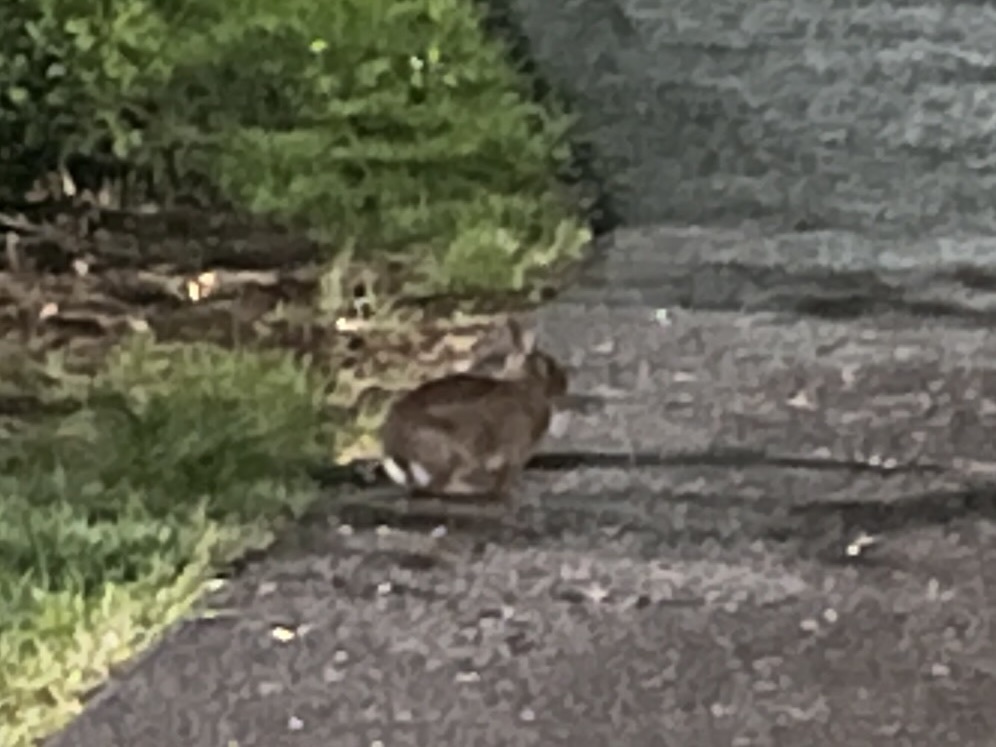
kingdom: Animalia
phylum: Chordata
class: Mammalia
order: Lagomorpha
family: Leporidae
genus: Sylvilagus
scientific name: Sylvilagus floridanus
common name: Eastern cottontail
